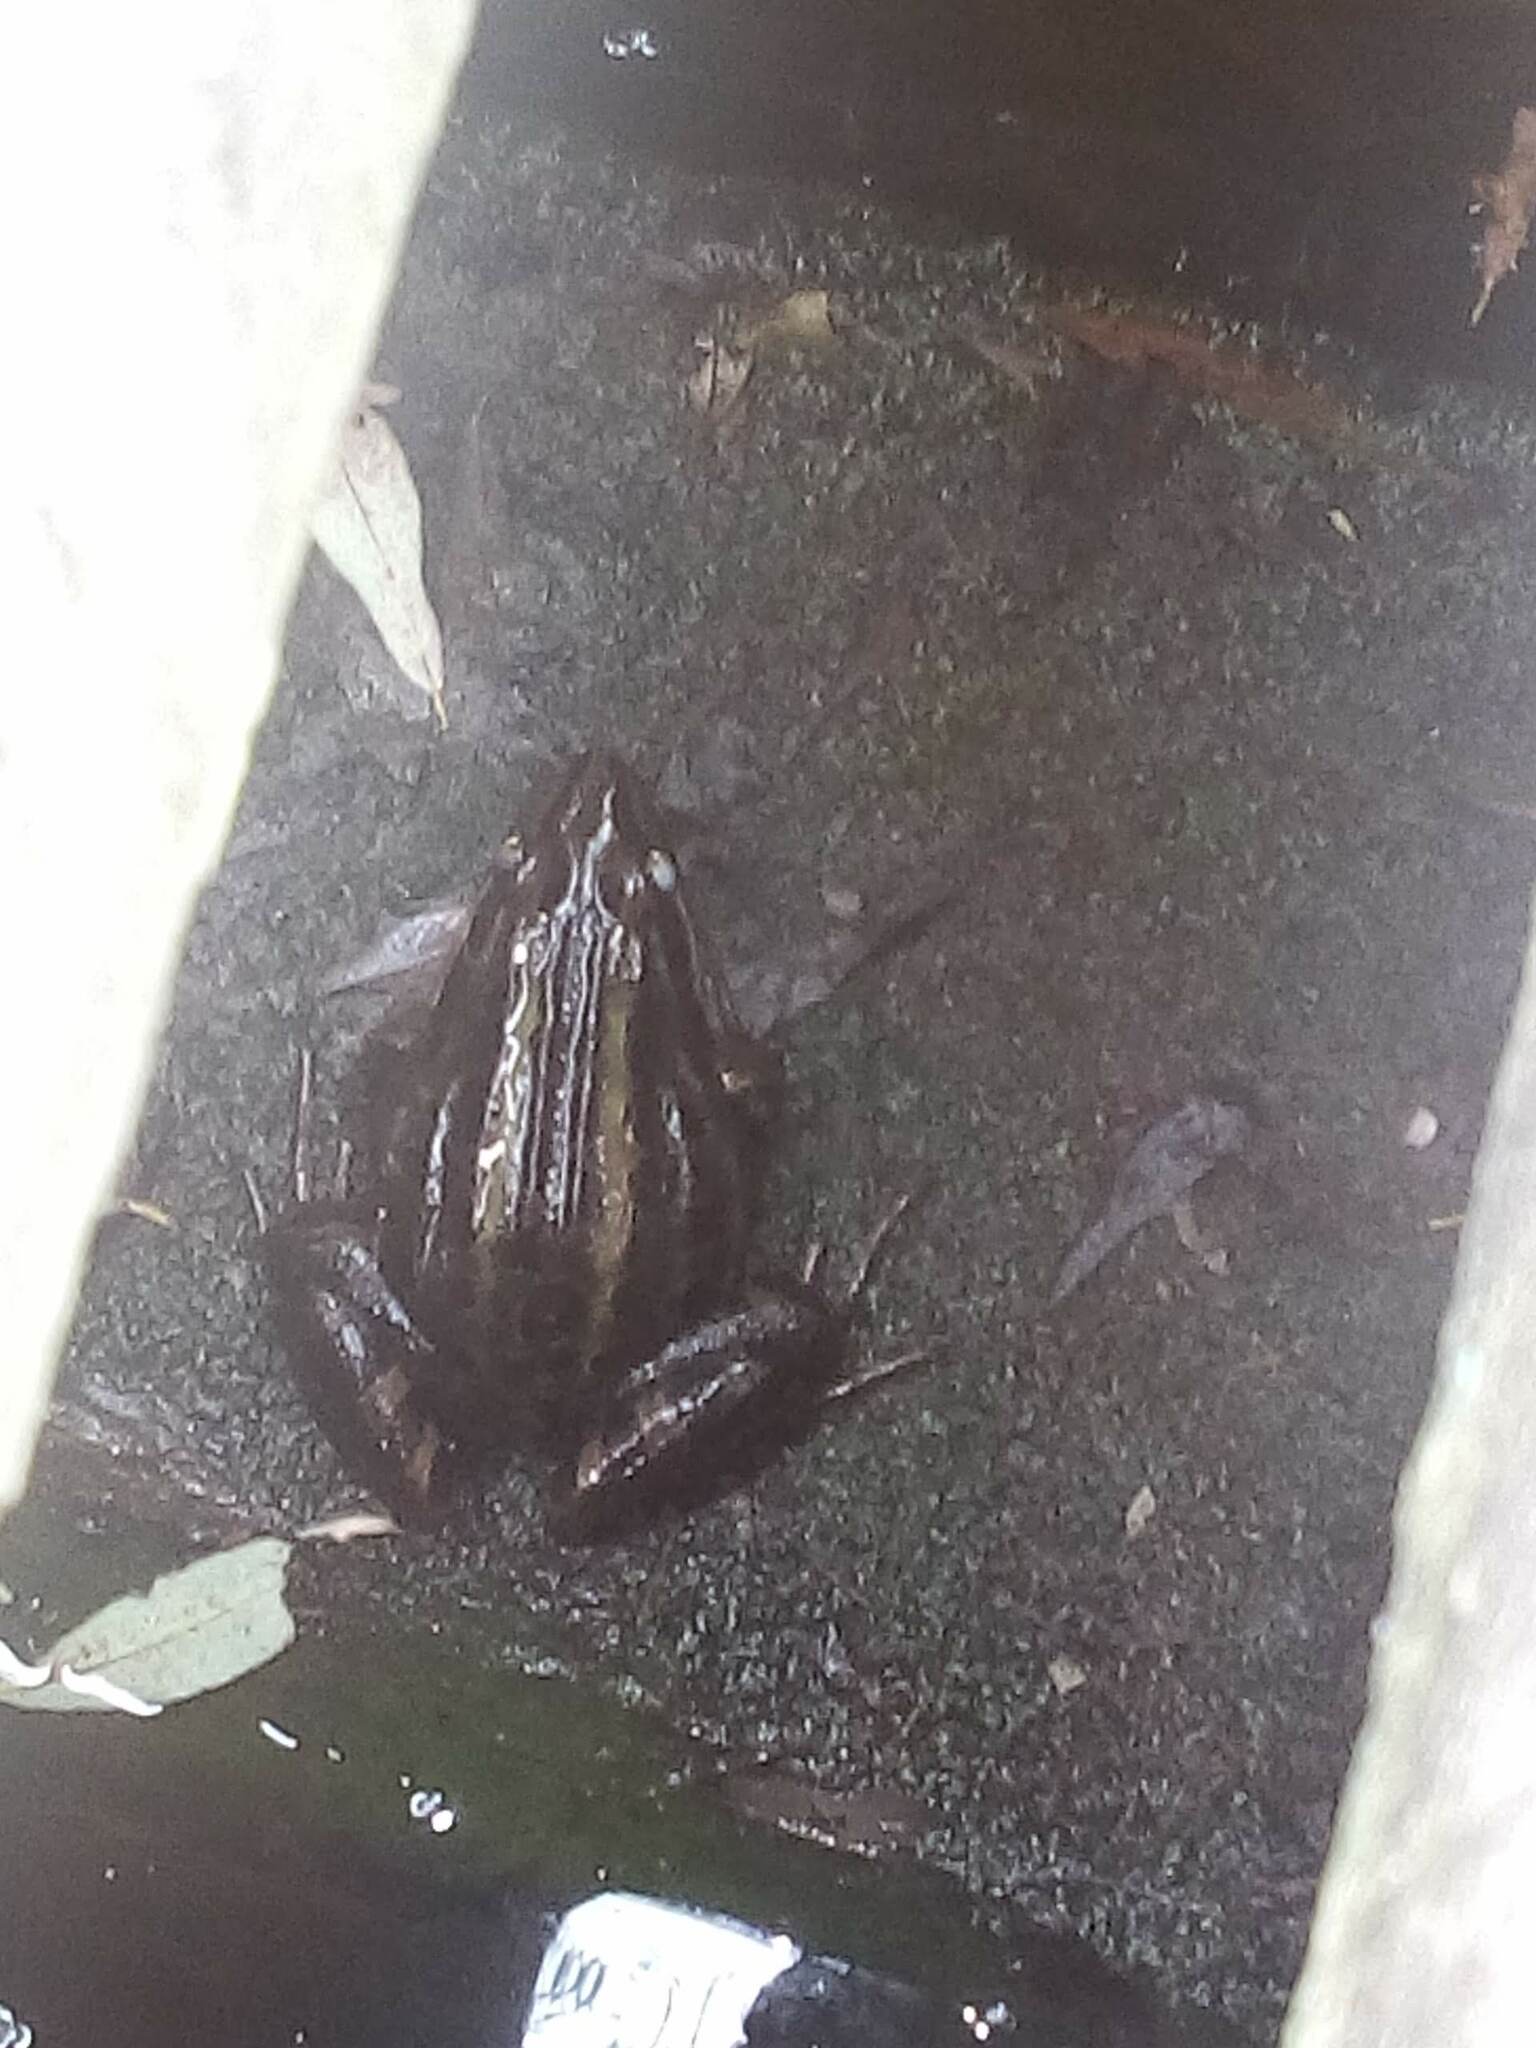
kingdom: Animalia
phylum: Chordata
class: Amphibia
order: Anura
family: Leptodactylidae
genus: Leptodactylus
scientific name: Leptodactylus luctator
